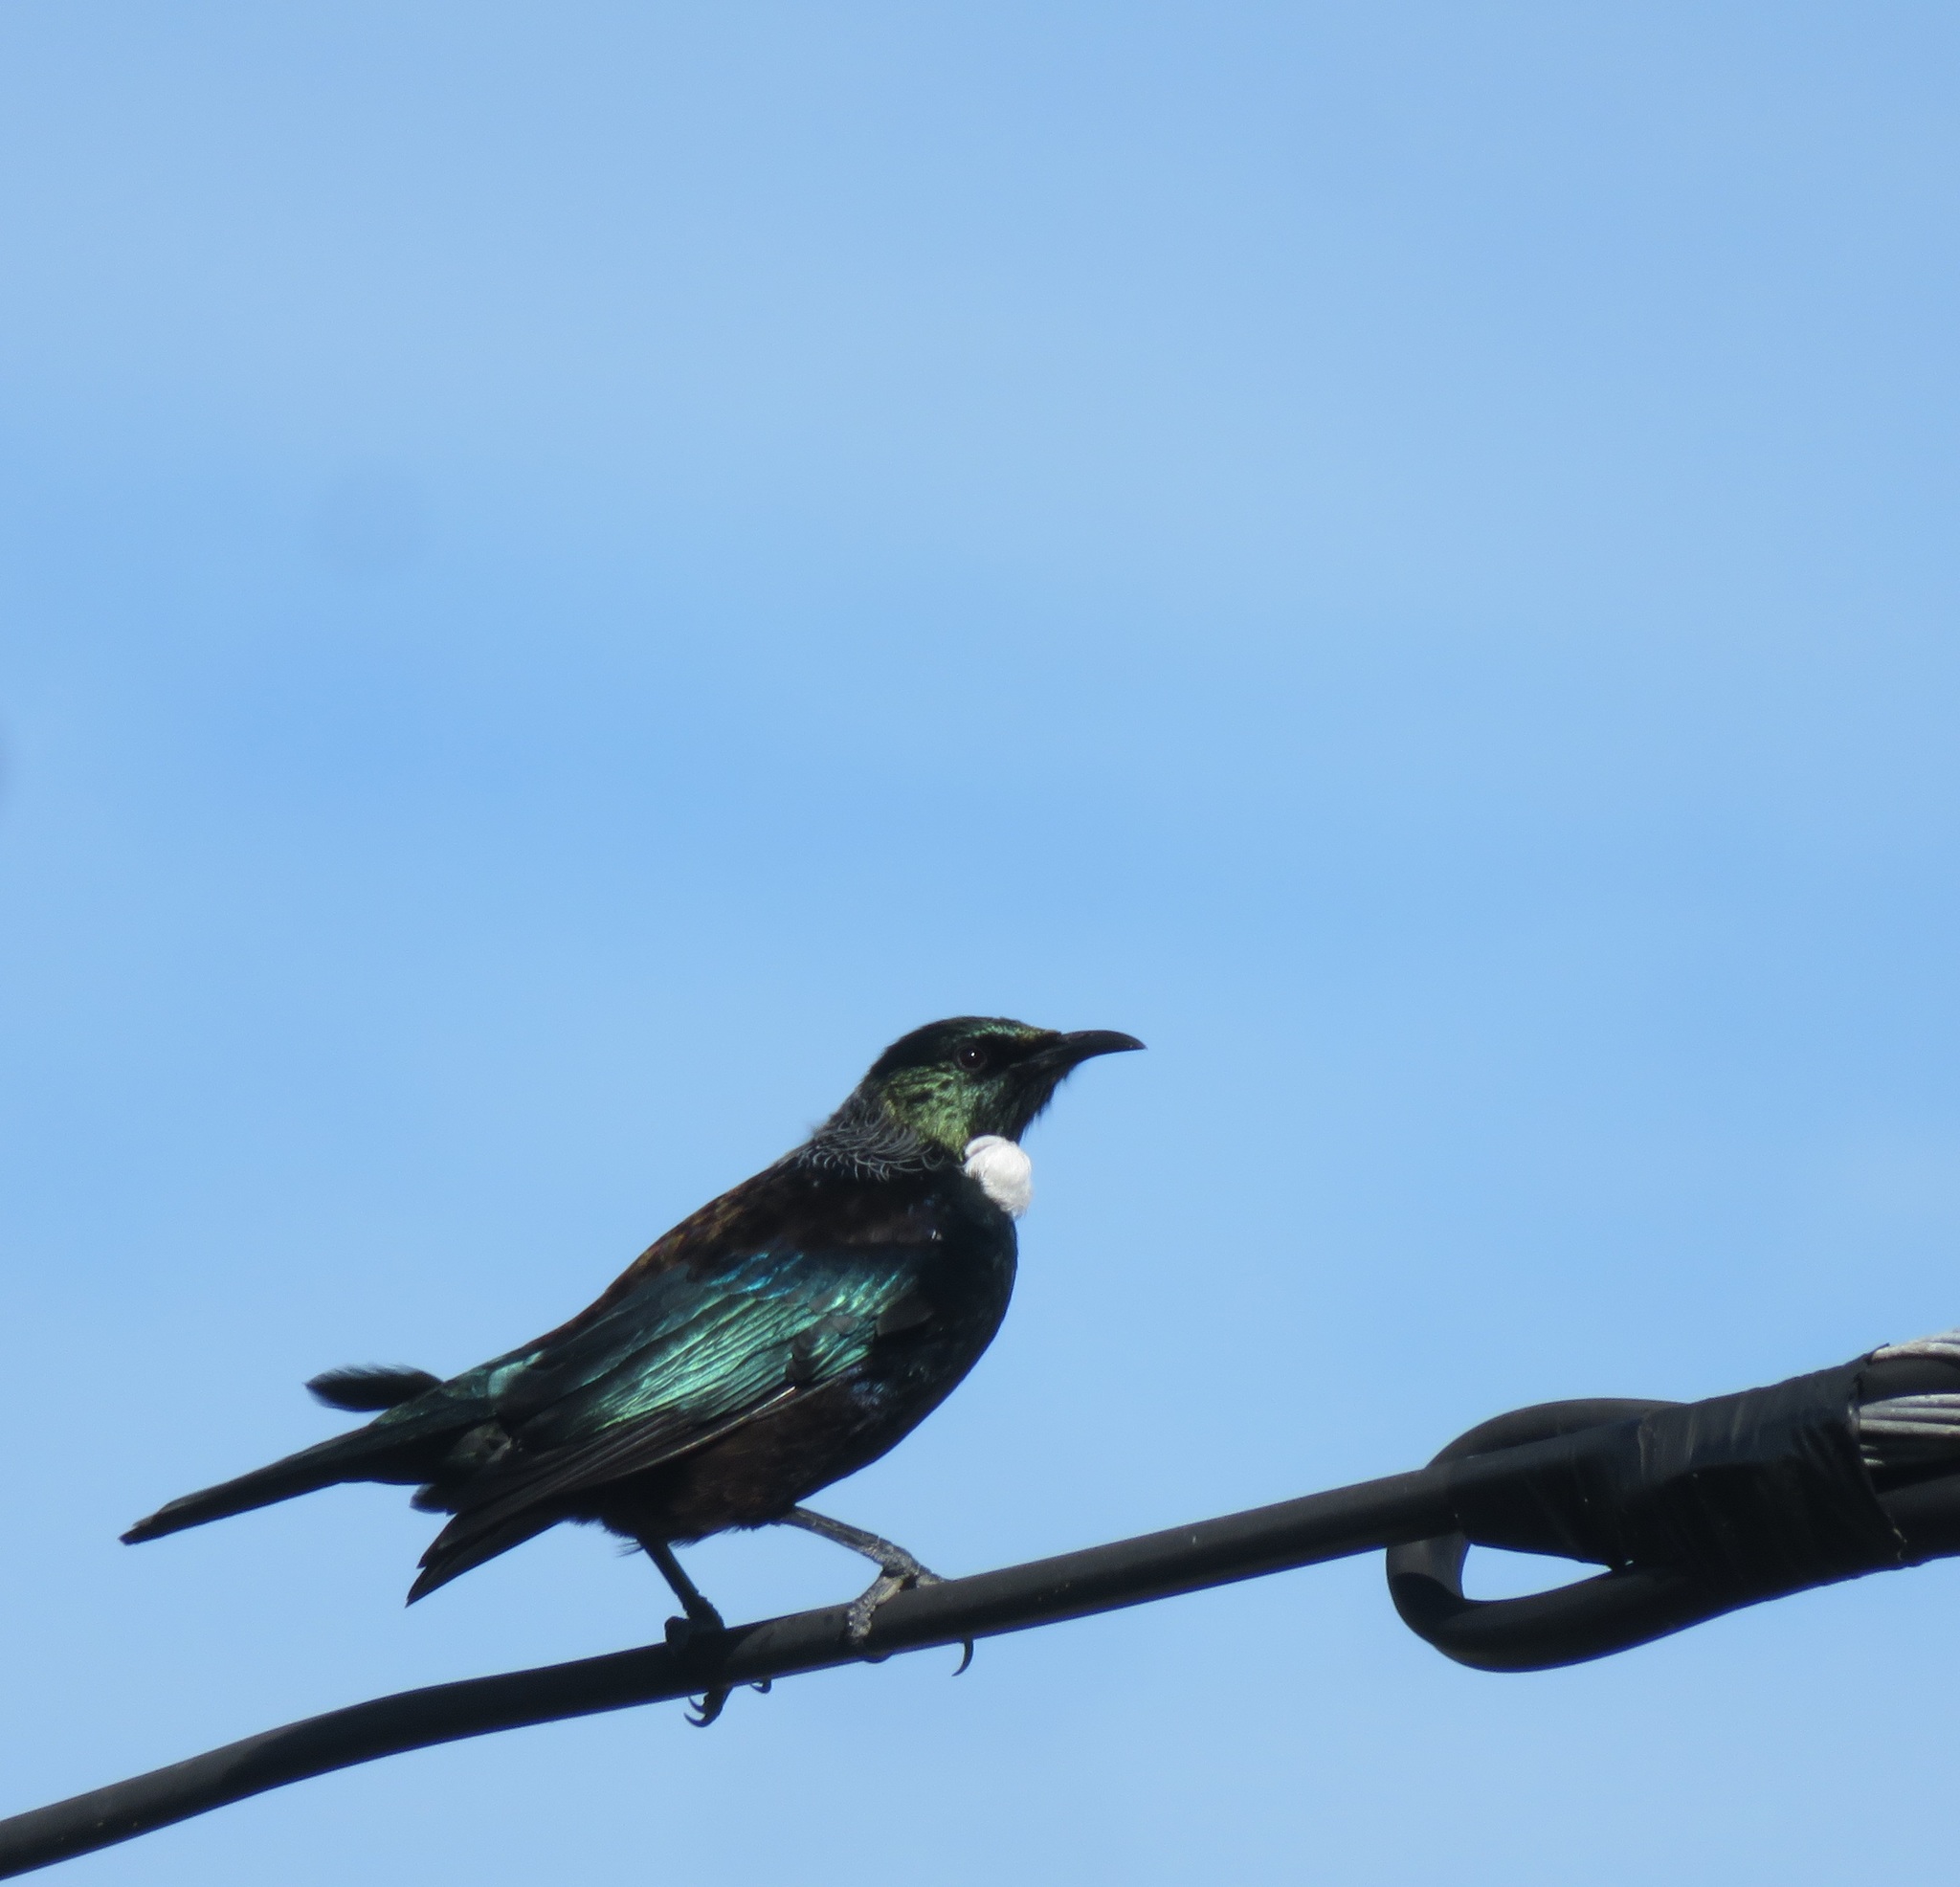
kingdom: Animalia
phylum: Chordata
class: Aves
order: Passeriformes
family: Meliphagidae
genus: Prosthemadera
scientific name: Prosthemadera novaeseelandiae
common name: Tui
